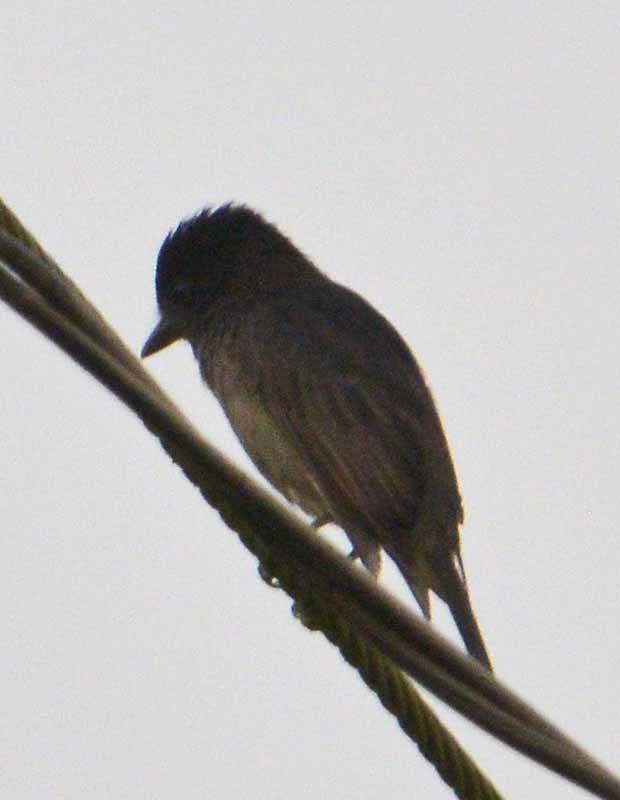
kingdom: Animalia
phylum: Chordata
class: Aves
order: Passeriformes
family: Cotingidae
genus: Pachyramphus
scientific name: Pachyramphus aglaiae
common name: Rose-throated becard
